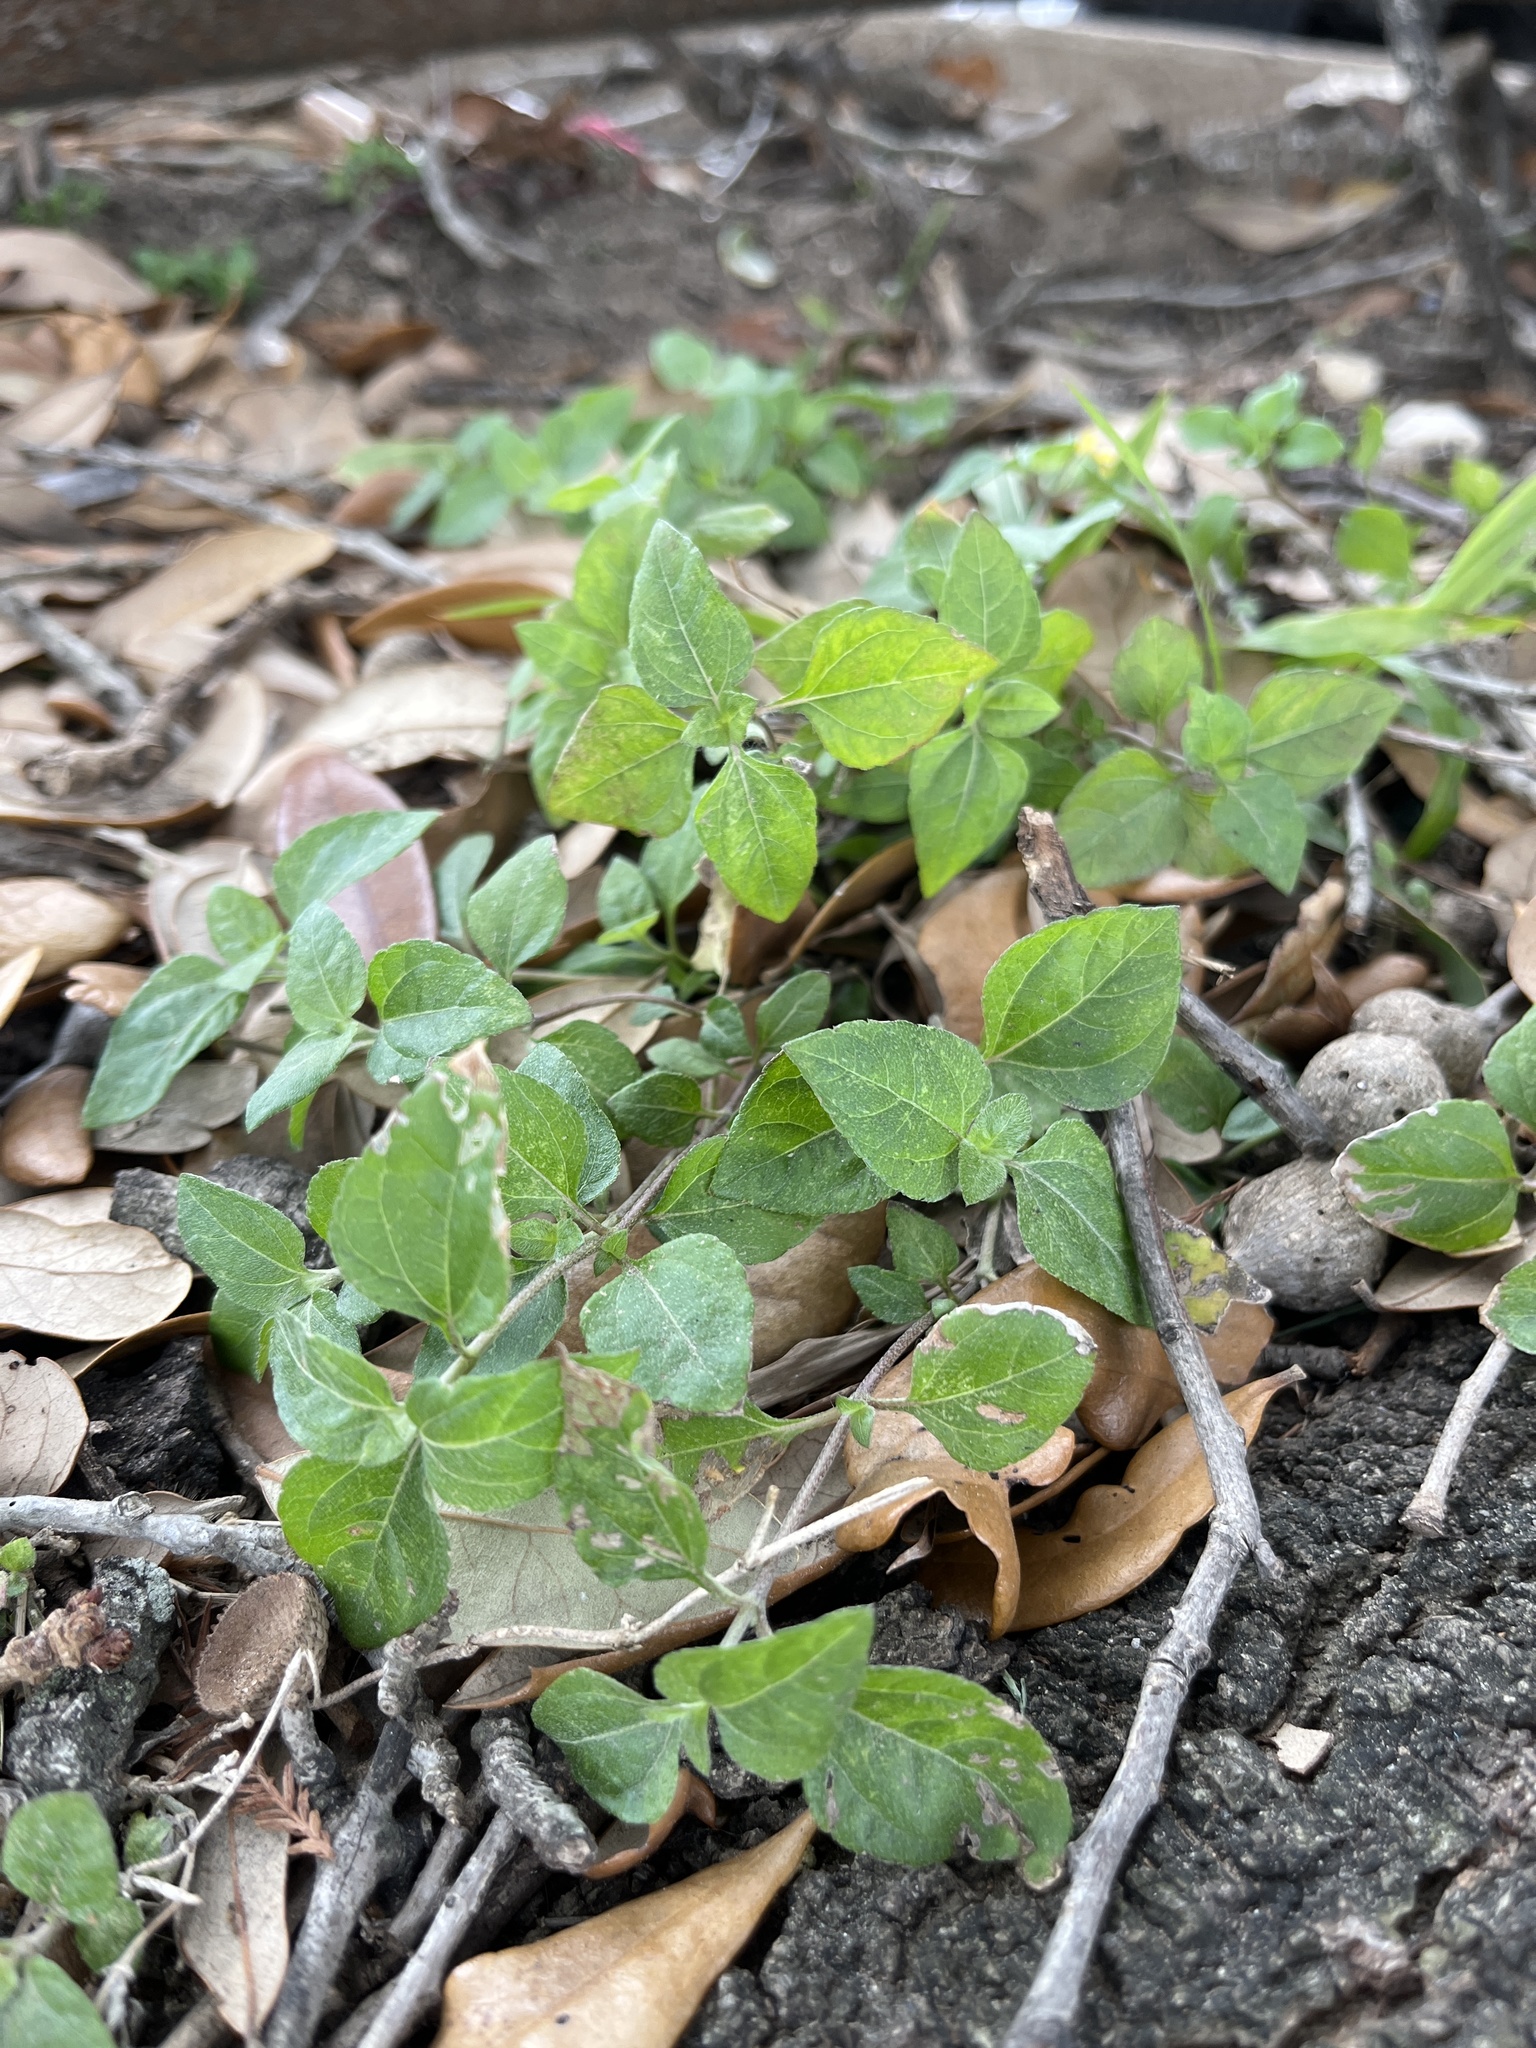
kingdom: Plantae
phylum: Tracheophyta
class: Magnoliopsida
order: Asterales
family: Asteraceae
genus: Calyptocarpus
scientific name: Calyptocarpus vialis
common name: Straggler daisy
